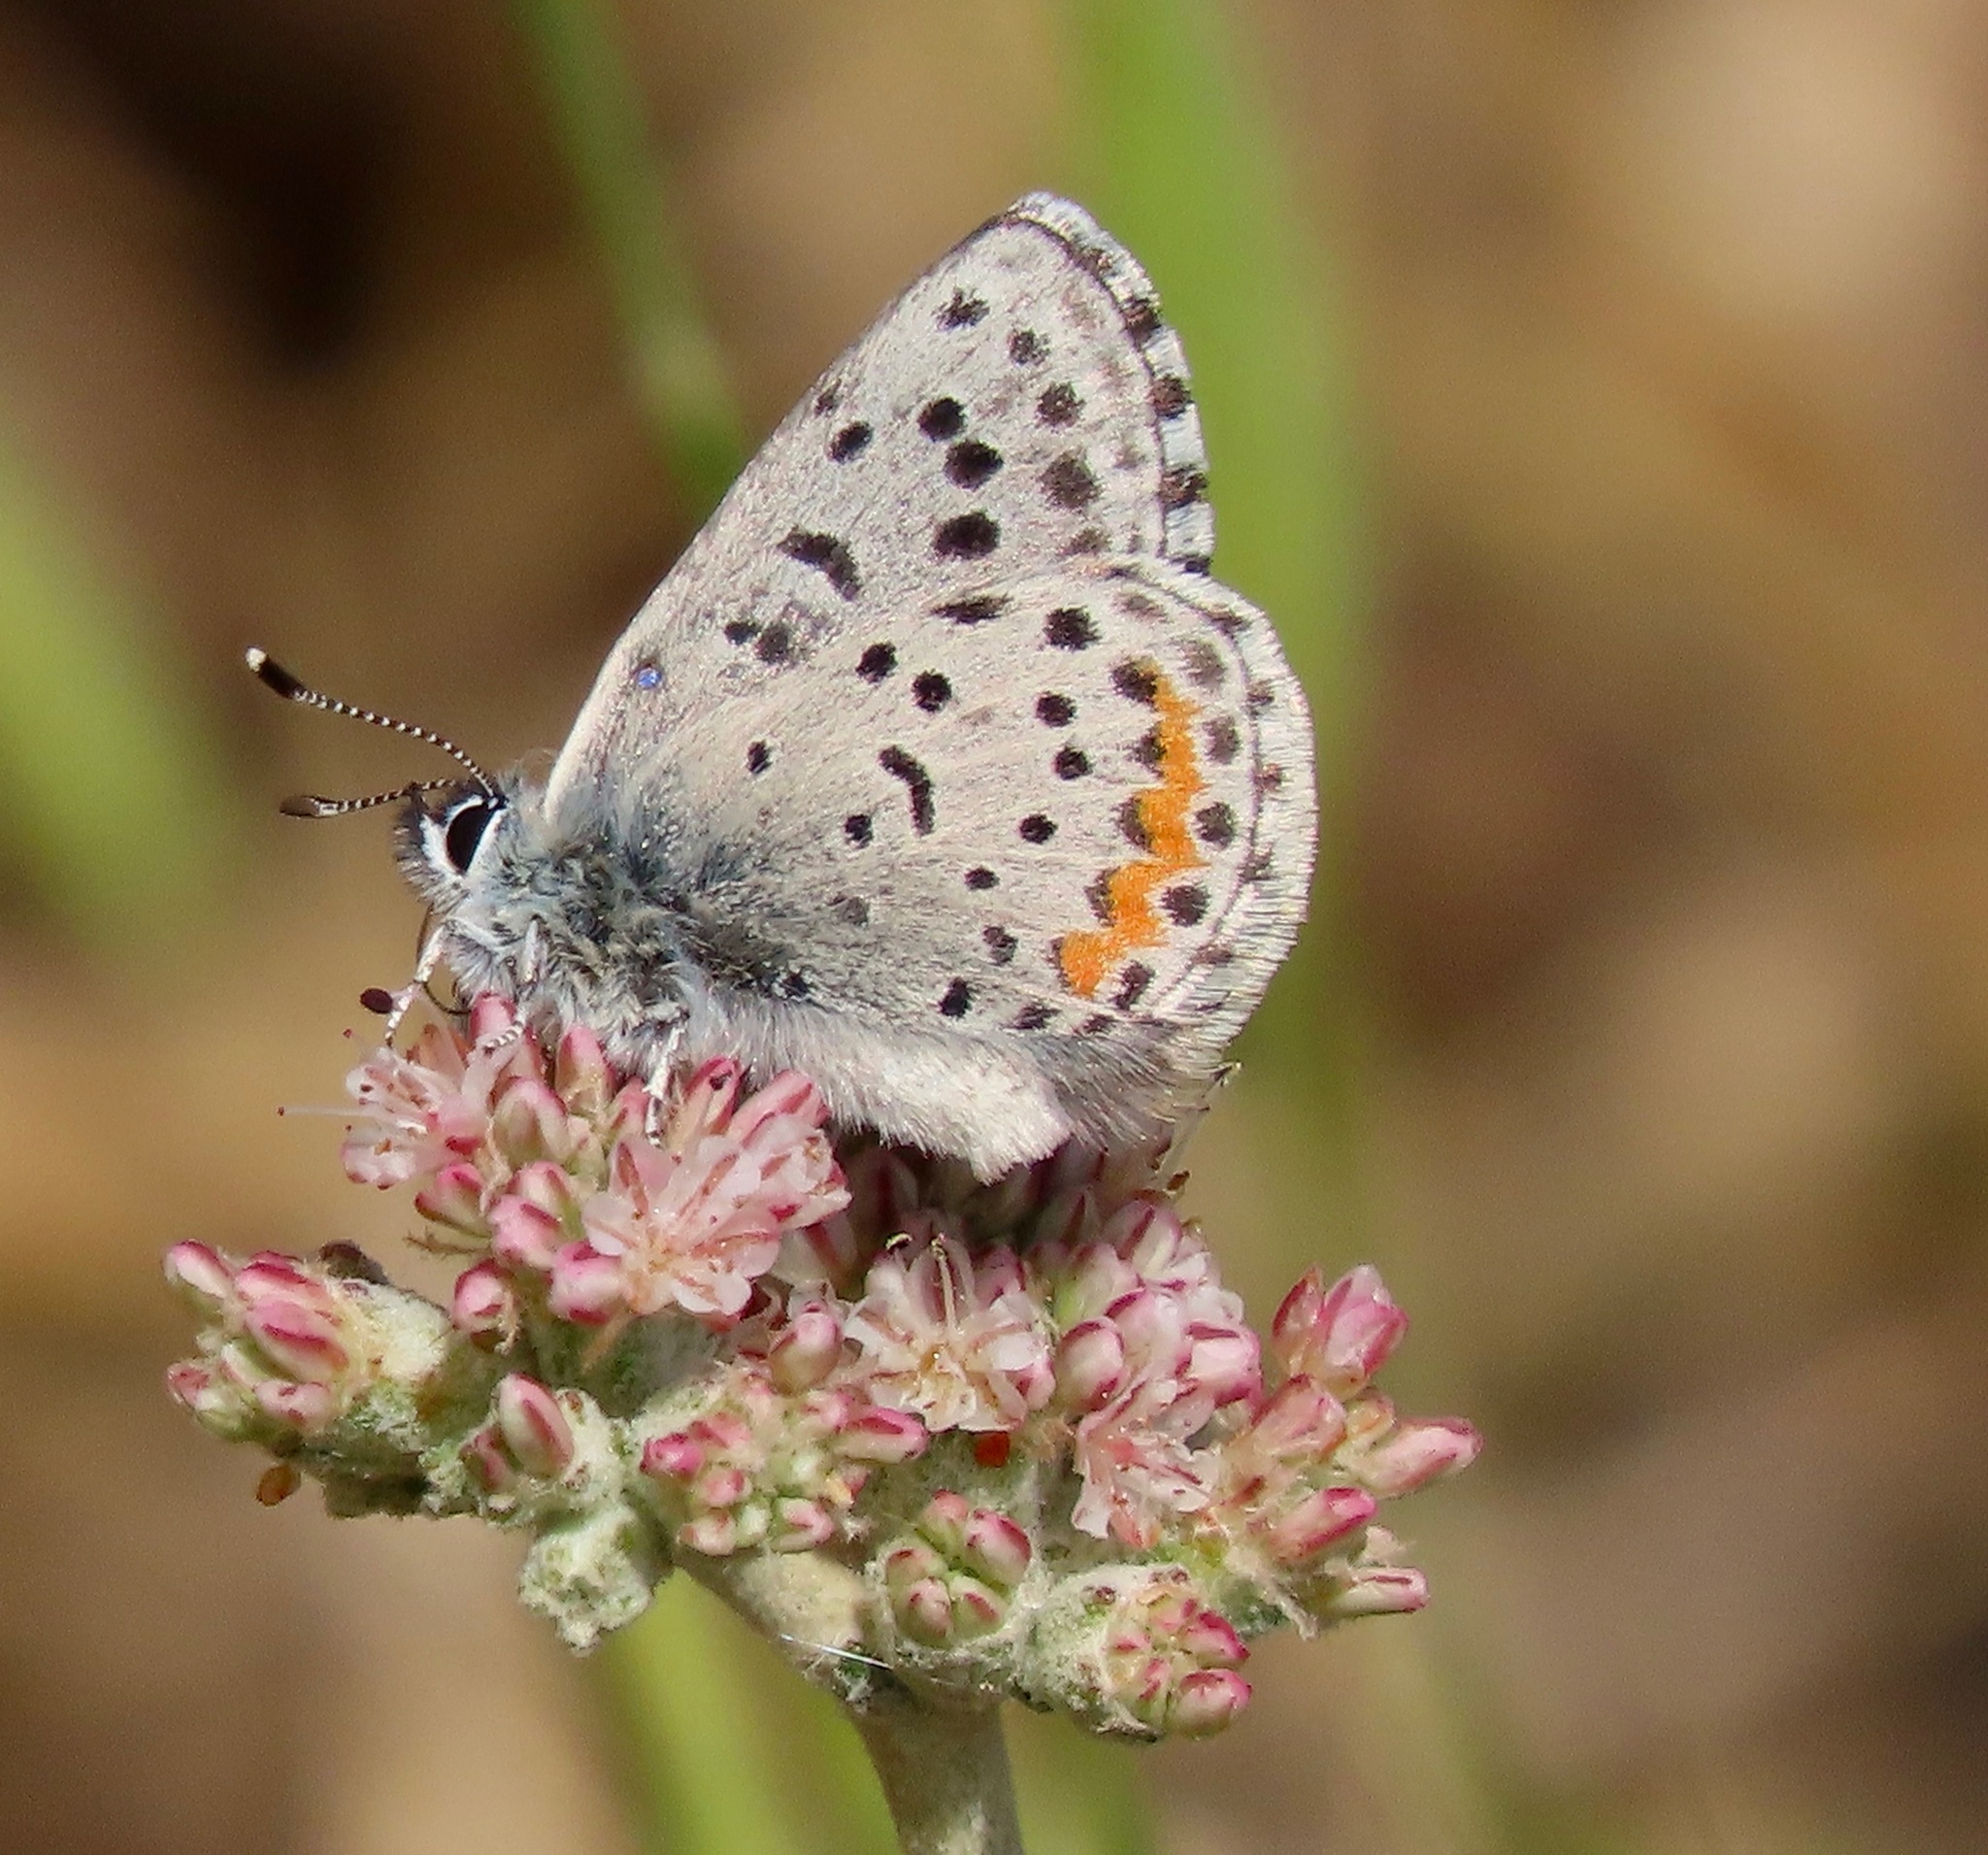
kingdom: Animalia
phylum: Arthropoda
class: Insecta
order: Lepidoptera
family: Lycaenidae
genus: Euphilotes
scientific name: Euphilotes enoptes
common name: Dotted blue
